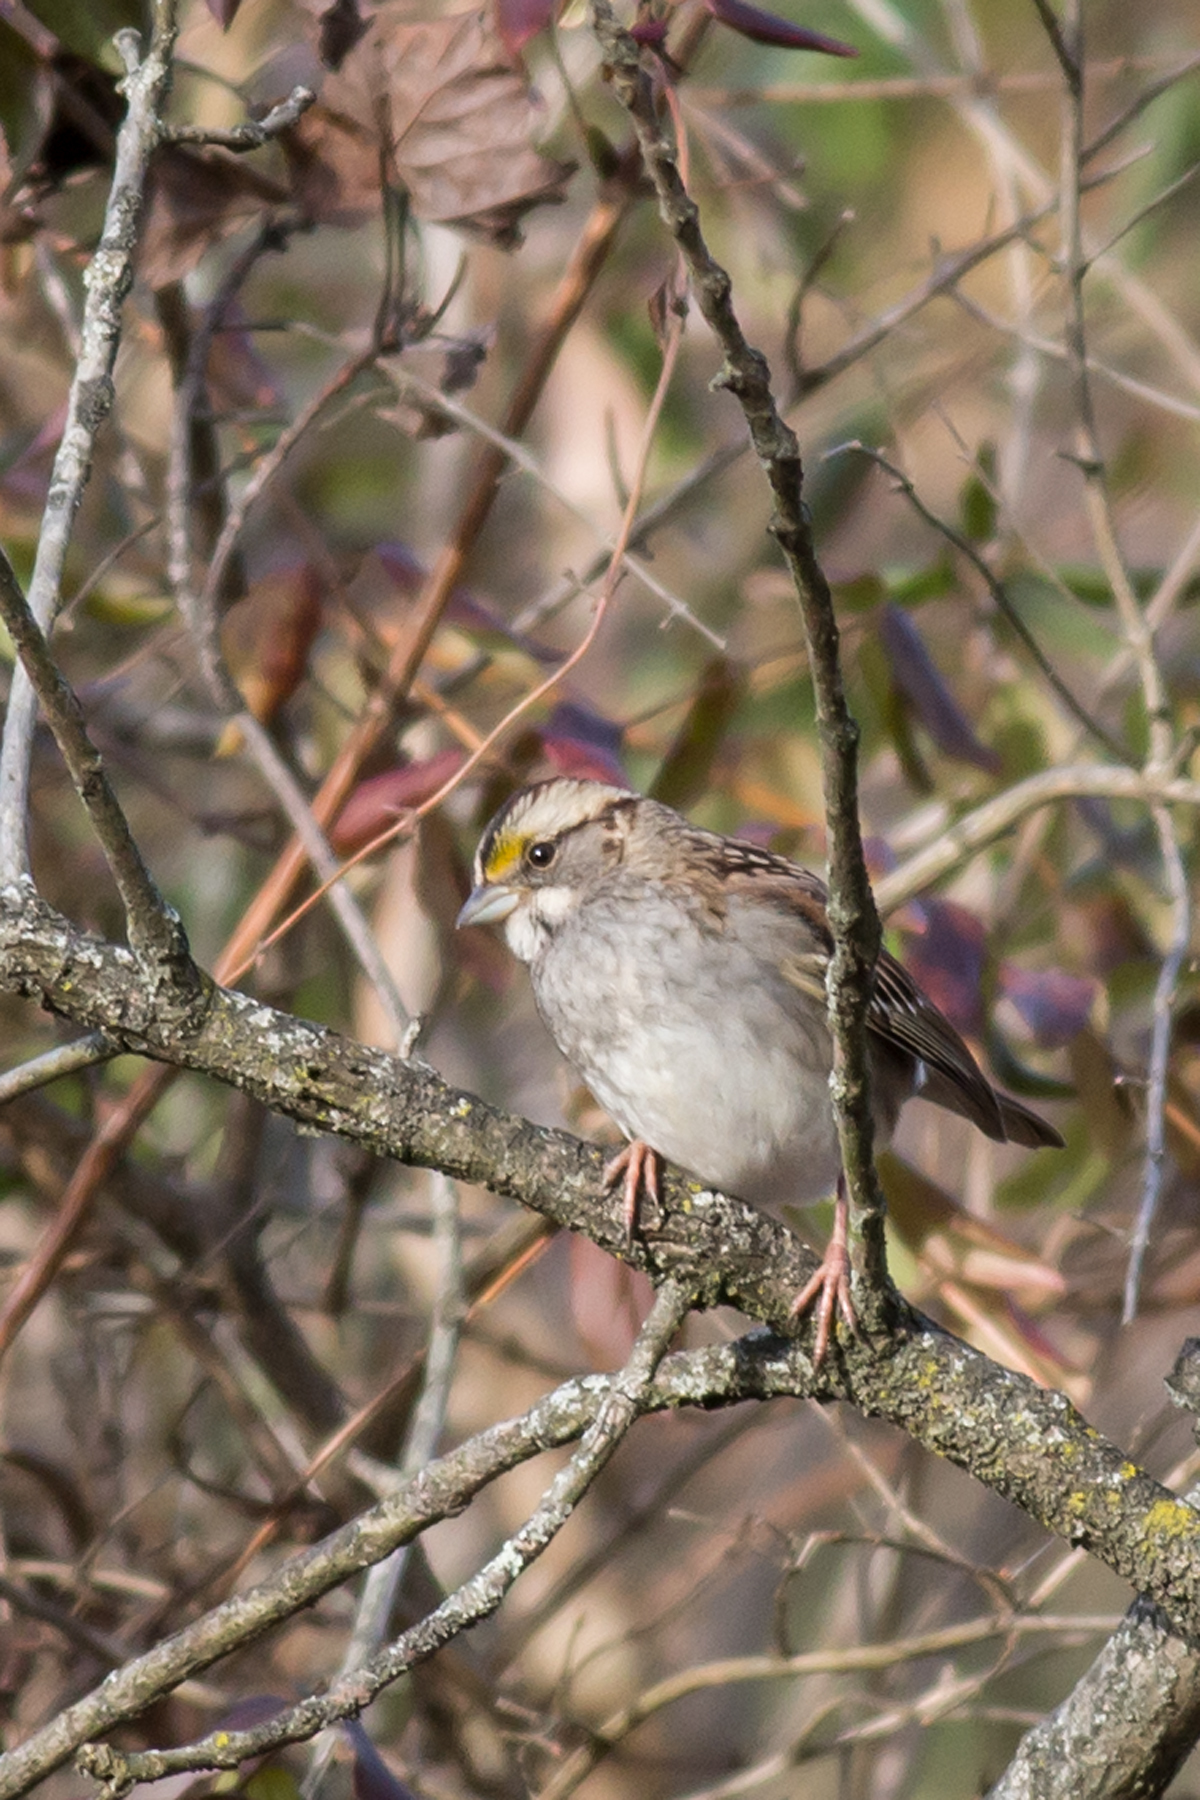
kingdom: Animalia
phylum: Chordata
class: Aves
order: Passeriformes
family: Passerellidae
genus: Zonotrichia
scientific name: Zonotrichia albicollis
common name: White-throated sparrow
